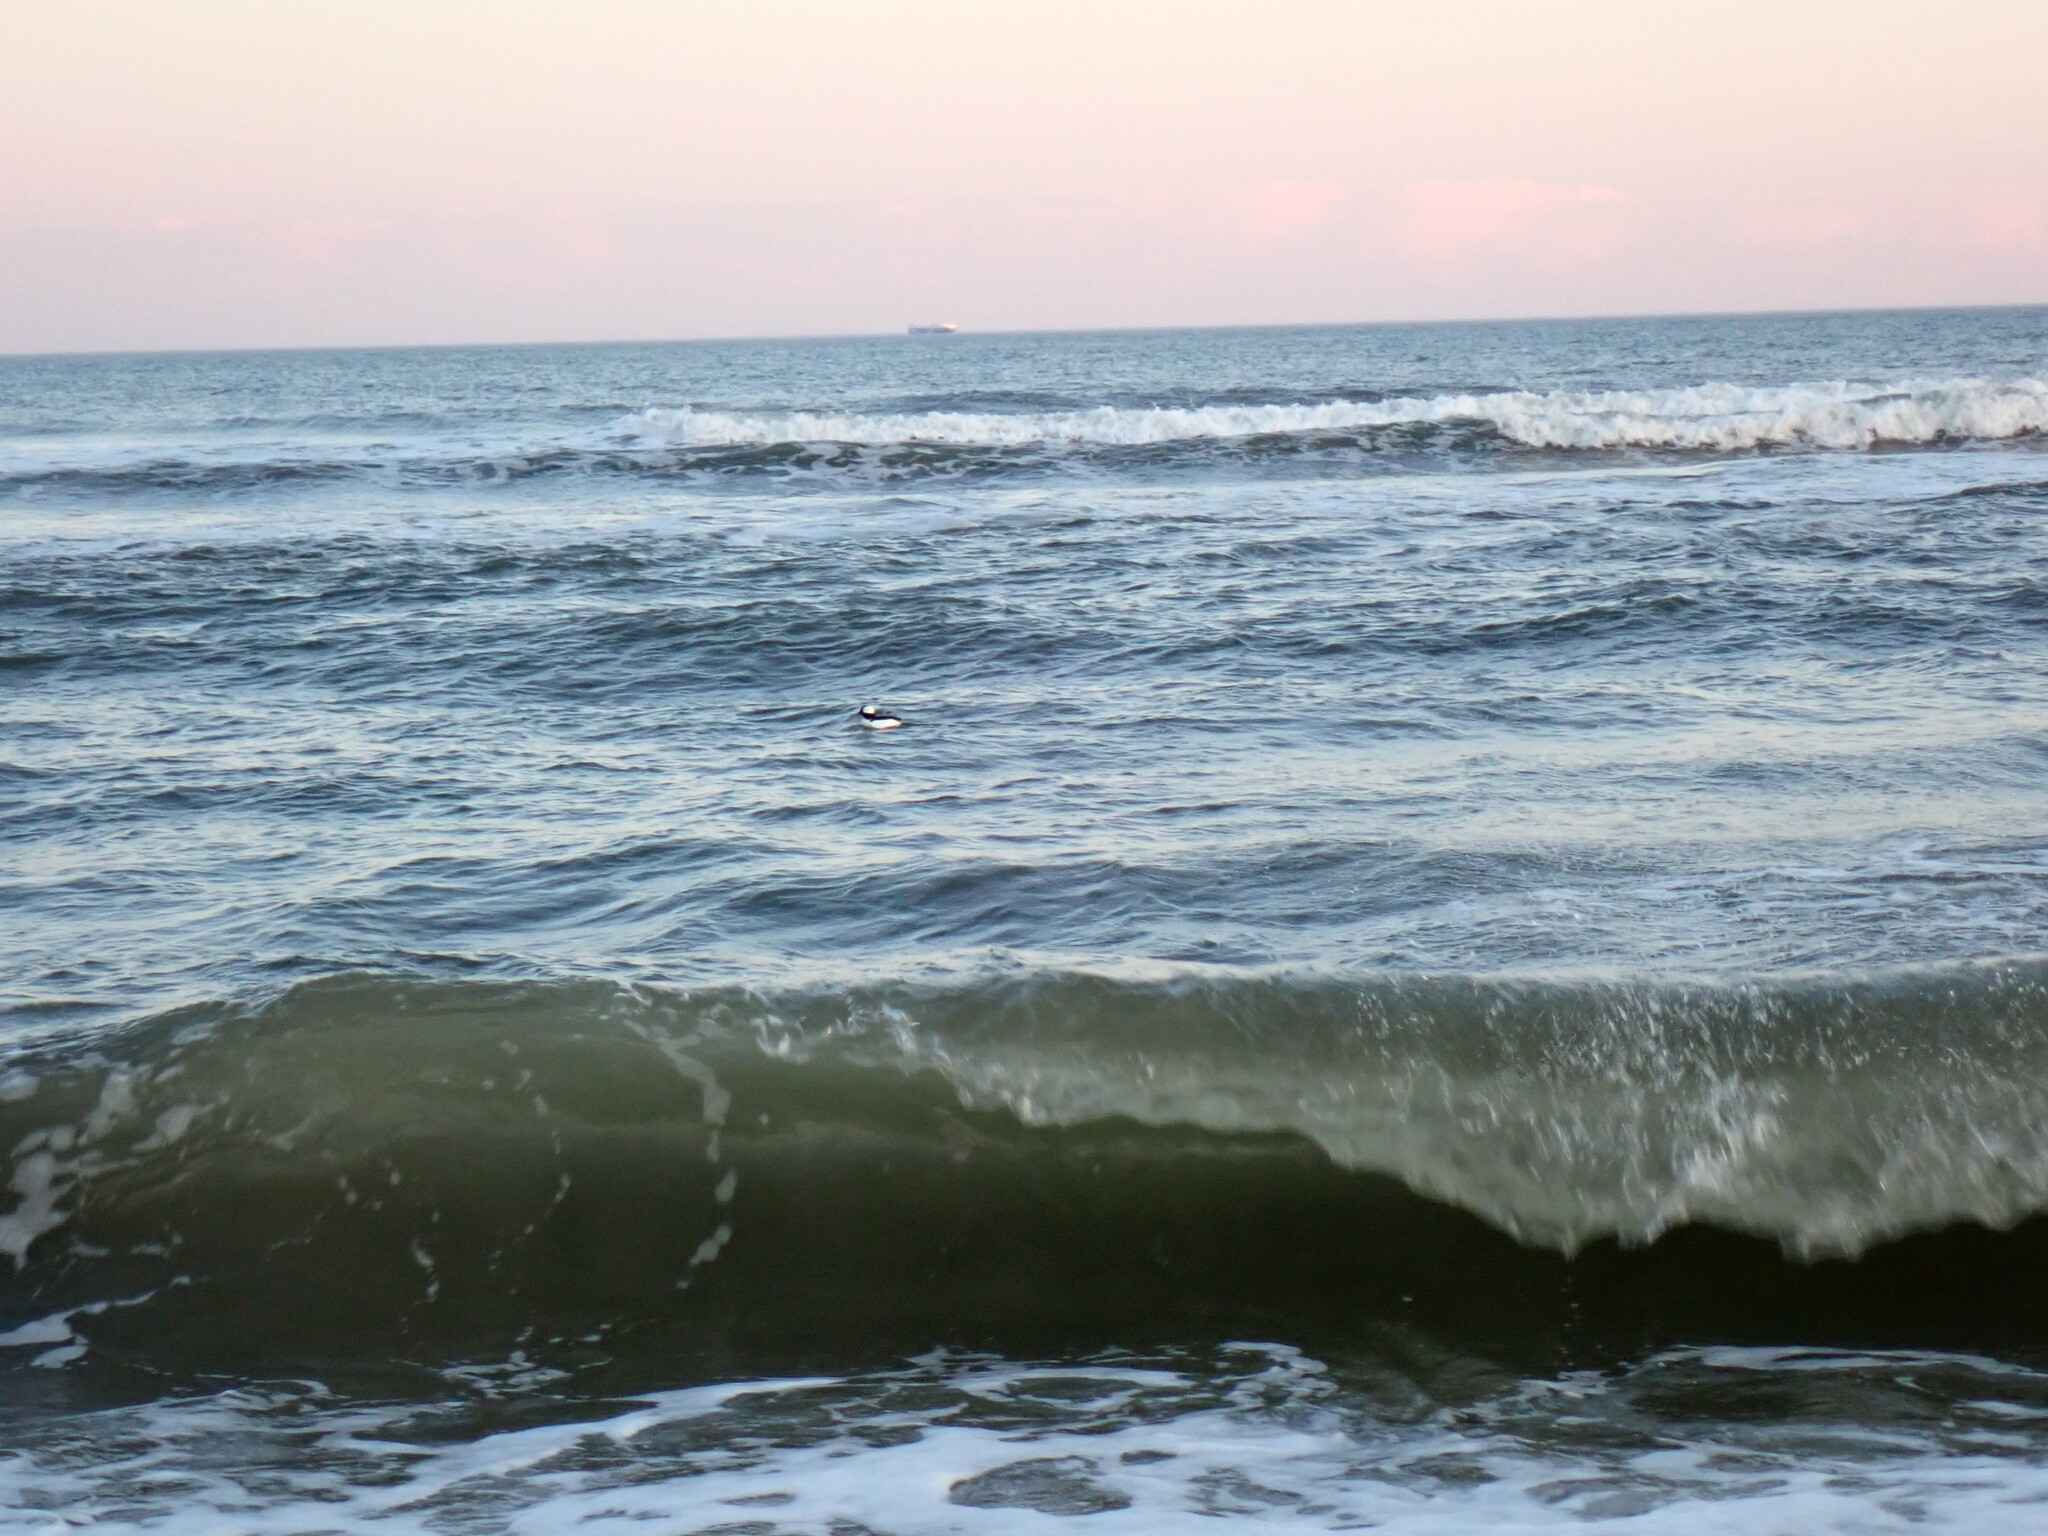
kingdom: Animalia
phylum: Chordata
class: Aves
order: Anseriformes
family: Anatidae
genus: Bucephala
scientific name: Bucephala albeola
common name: Bufflehead
